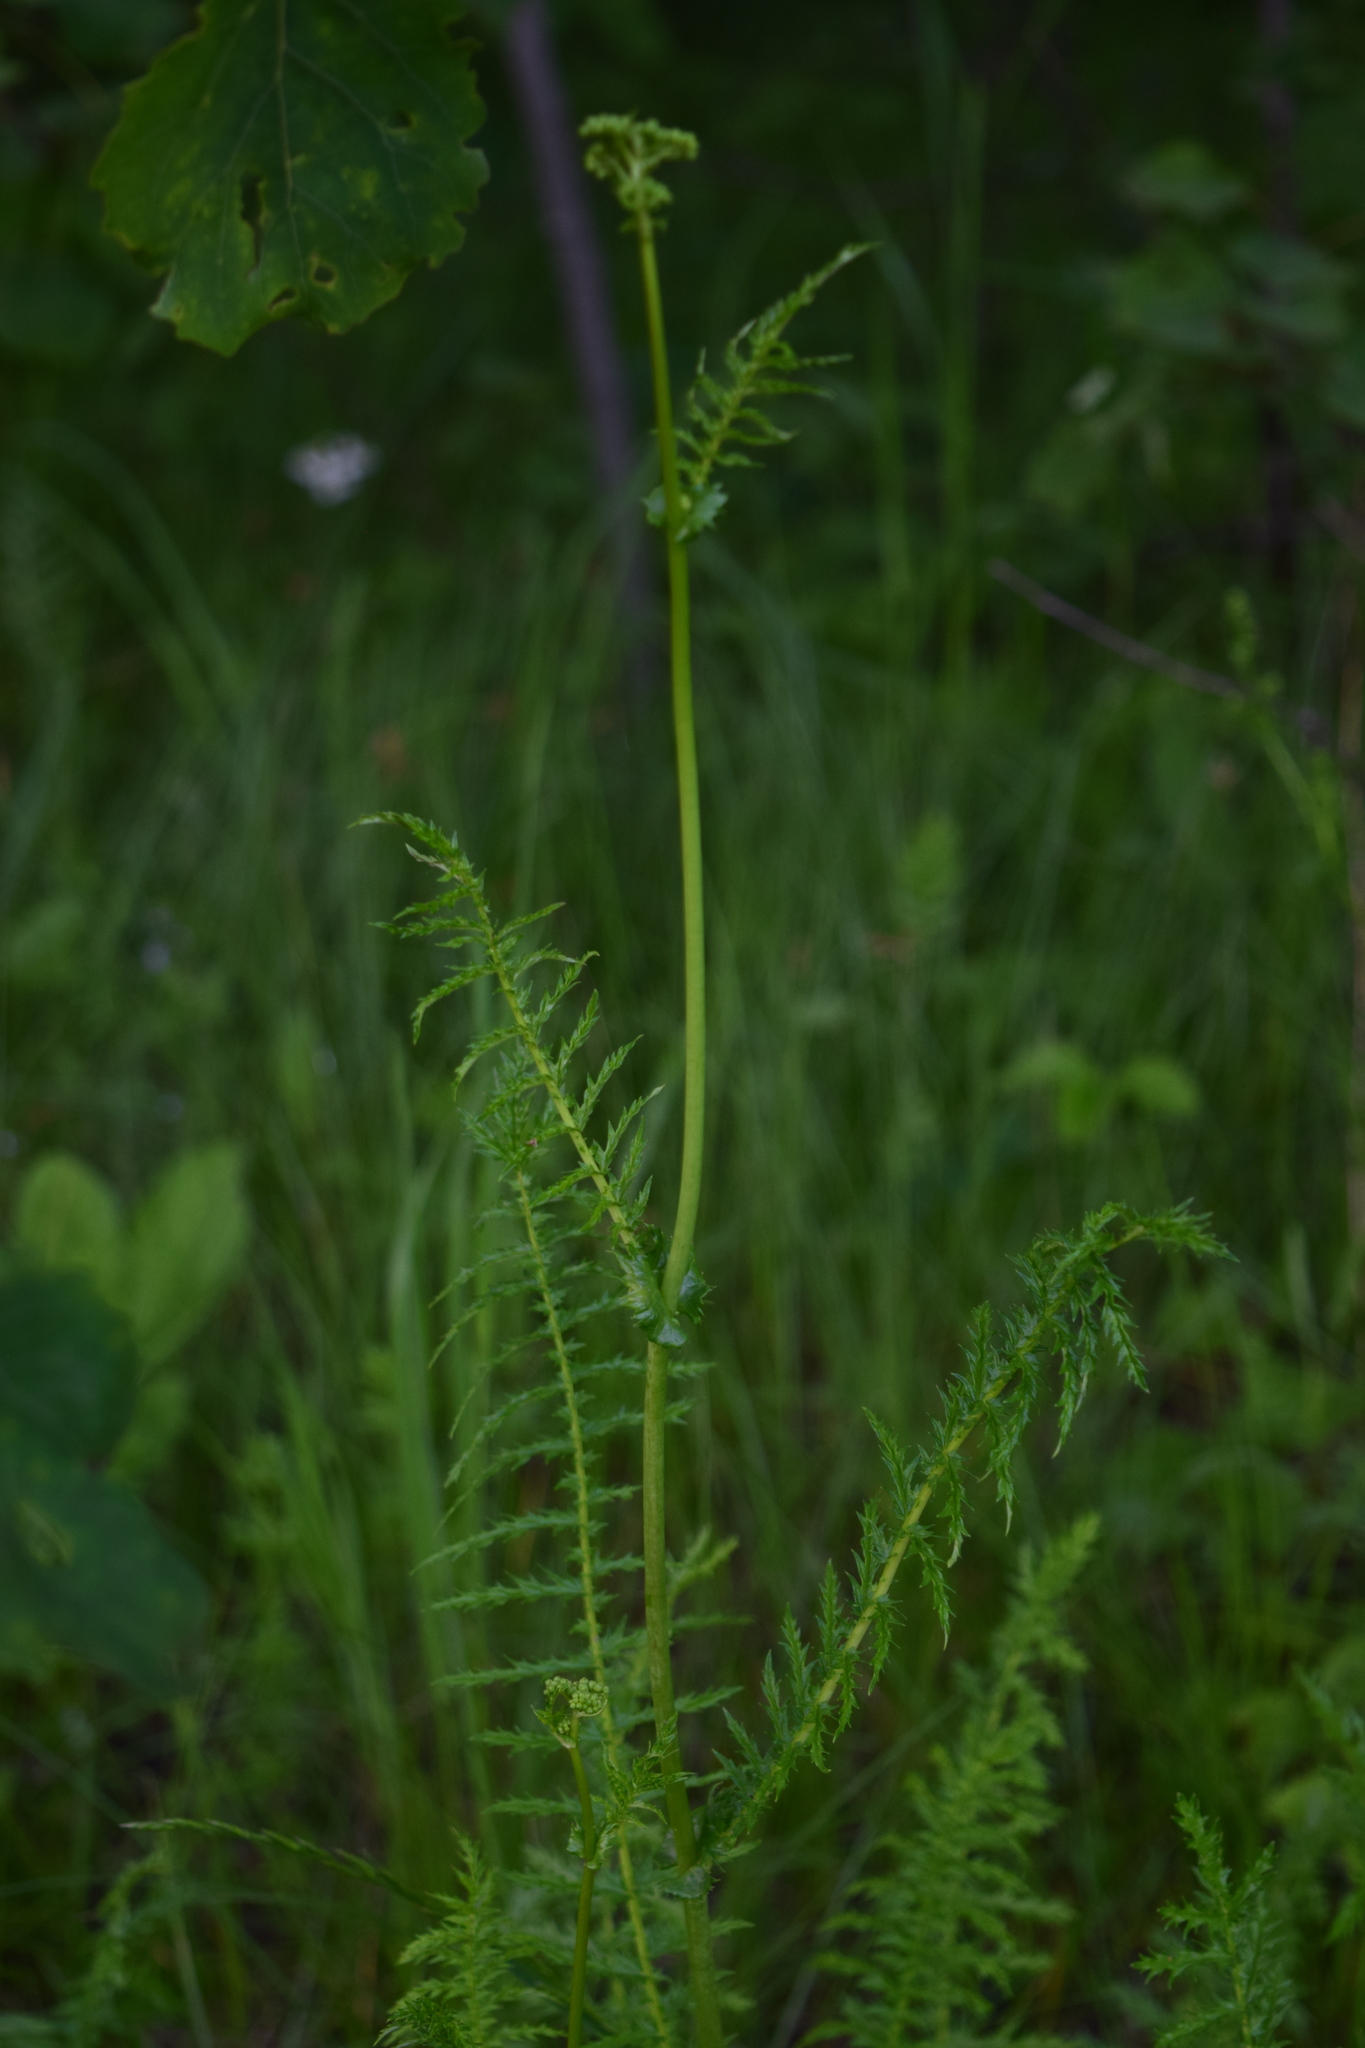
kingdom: Plantae
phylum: Tracheophyta
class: Magnoliopsida
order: Rosales
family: Rosaceae
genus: Filipendula
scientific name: Filipendula vulgaris
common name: Dropwort
